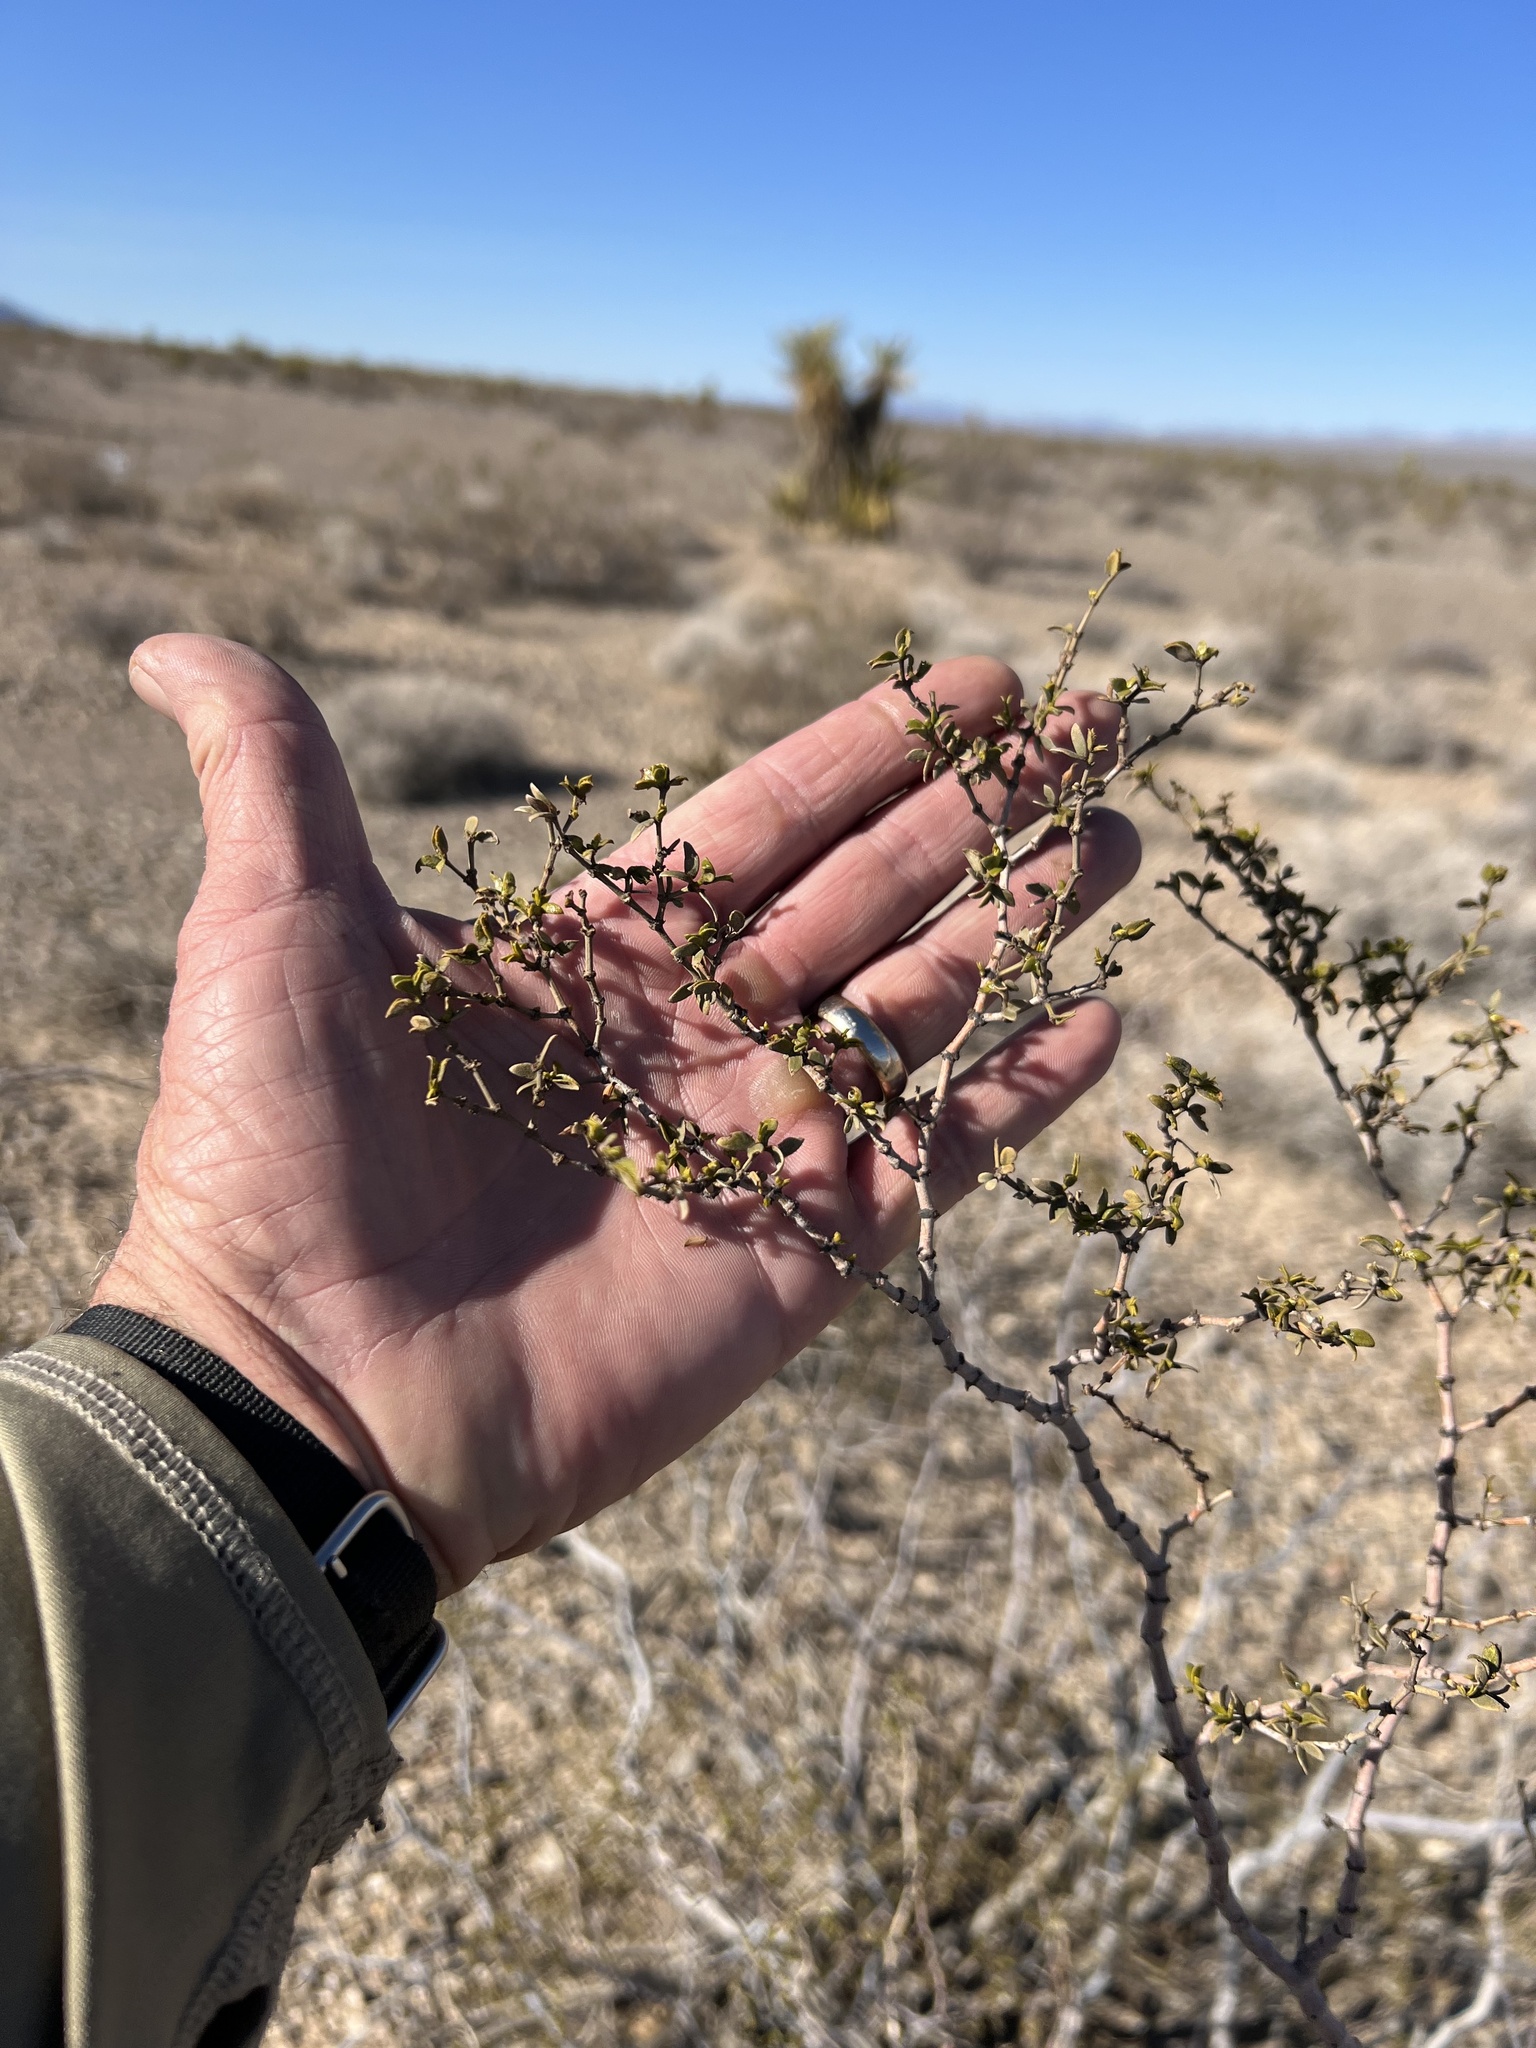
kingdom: Plantae
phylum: Tracheophyta
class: Magnoliopsida
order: Zygophyllales
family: Zygophyllaceae
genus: Larrea
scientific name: Larrea tridentata
